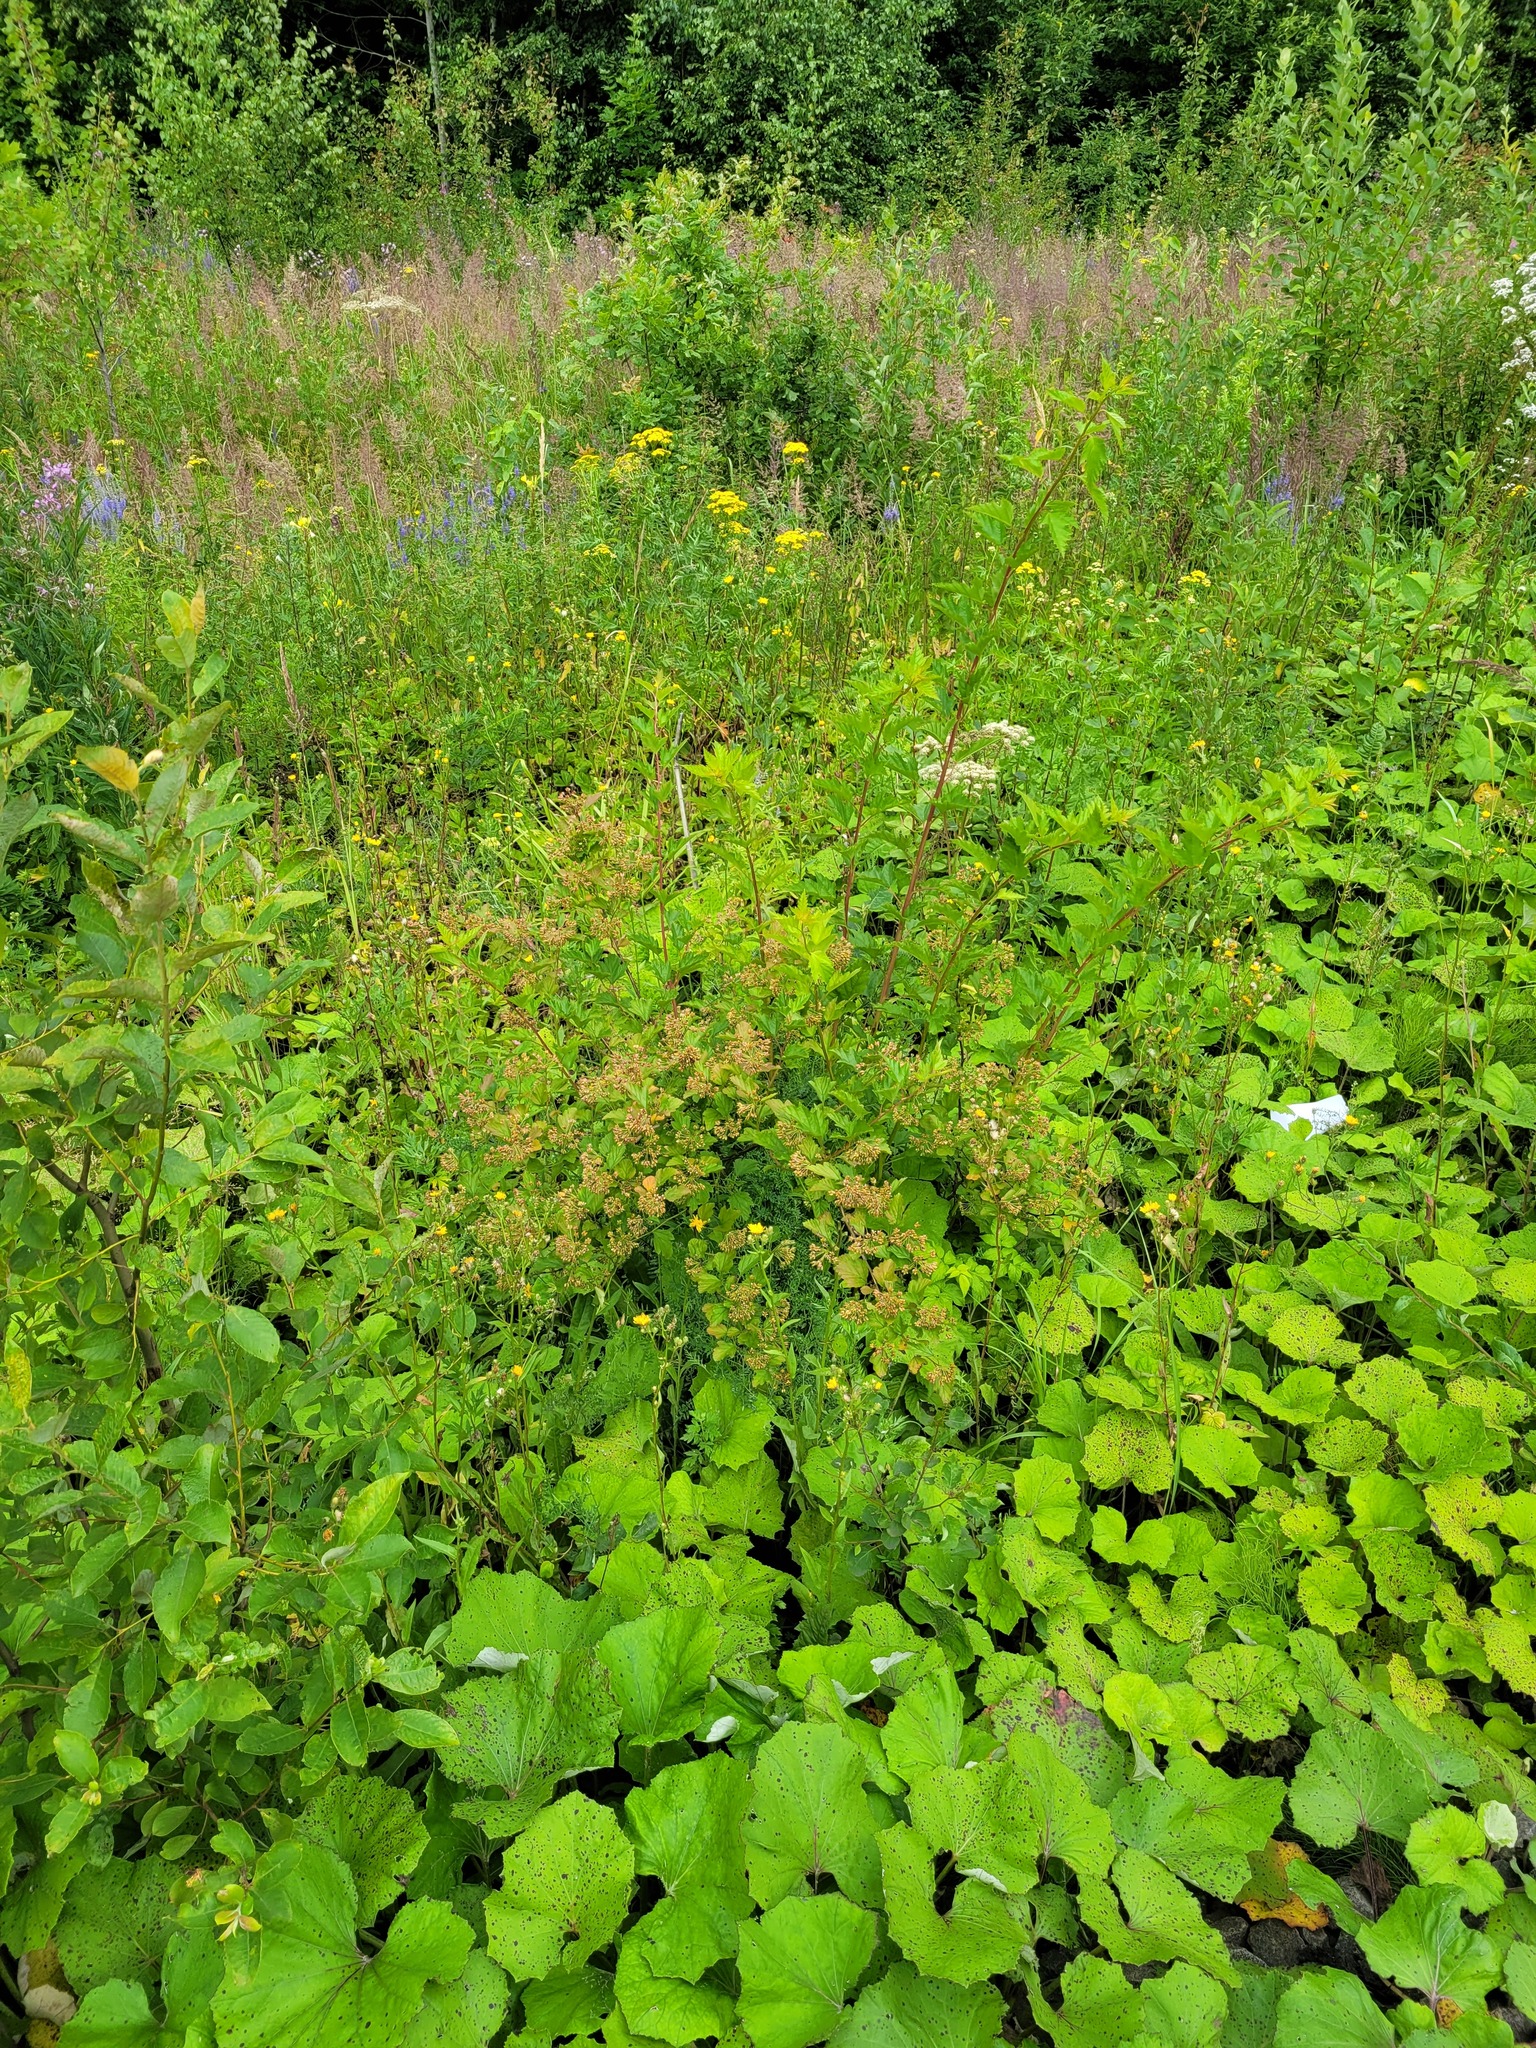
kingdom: Plantae
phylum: Tracheophyta
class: Magnoliopsida
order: Rosales
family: Rosaceae
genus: Physocarpus
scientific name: Physocarpus opulifolius
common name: Ninebark
